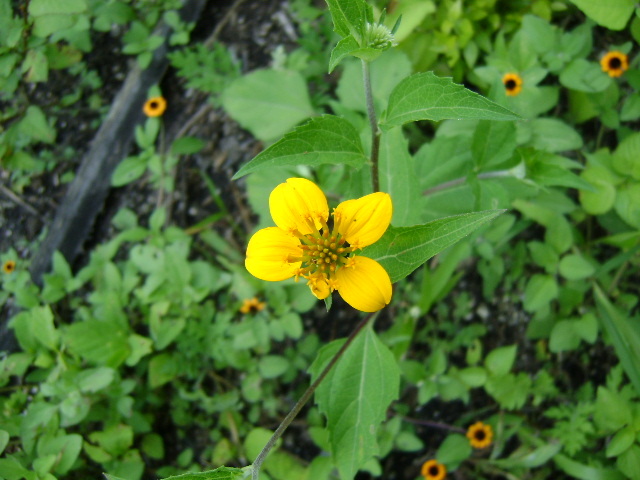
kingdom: Plantae
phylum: Tracheophyta
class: Magnoliopsida
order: Asterales
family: Asteraceae
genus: Sclerocarpus
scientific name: Sclerocarpus uniserialis
